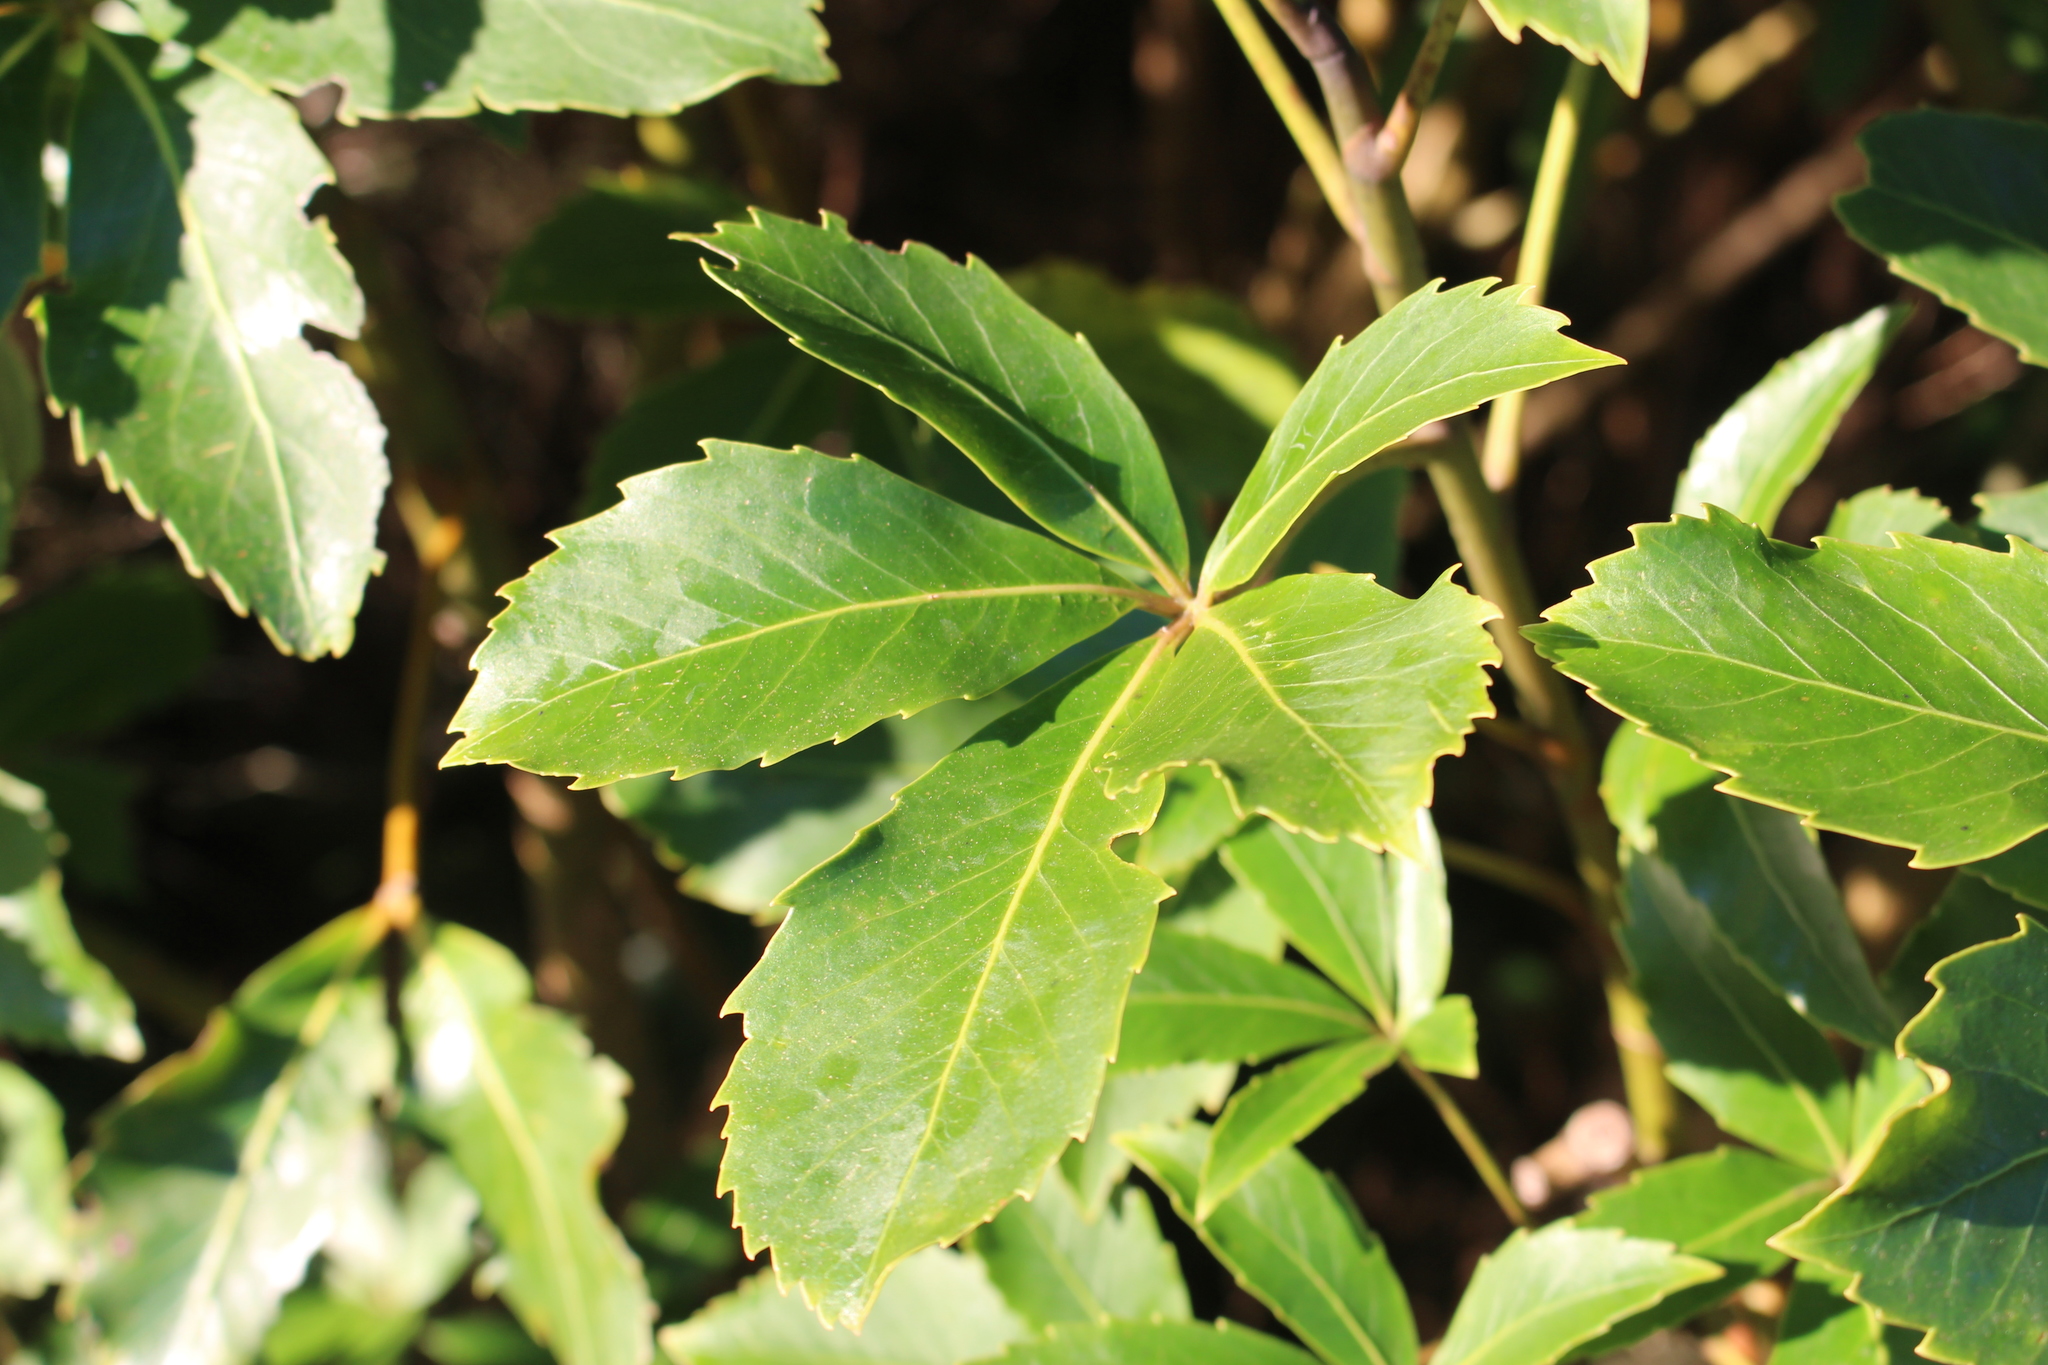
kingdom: Plantae
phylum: Tracheophyta
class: Magnoliopsida
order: Apiales
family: Araliaceae
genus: Neopanax
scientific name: Neopanax colensoi
